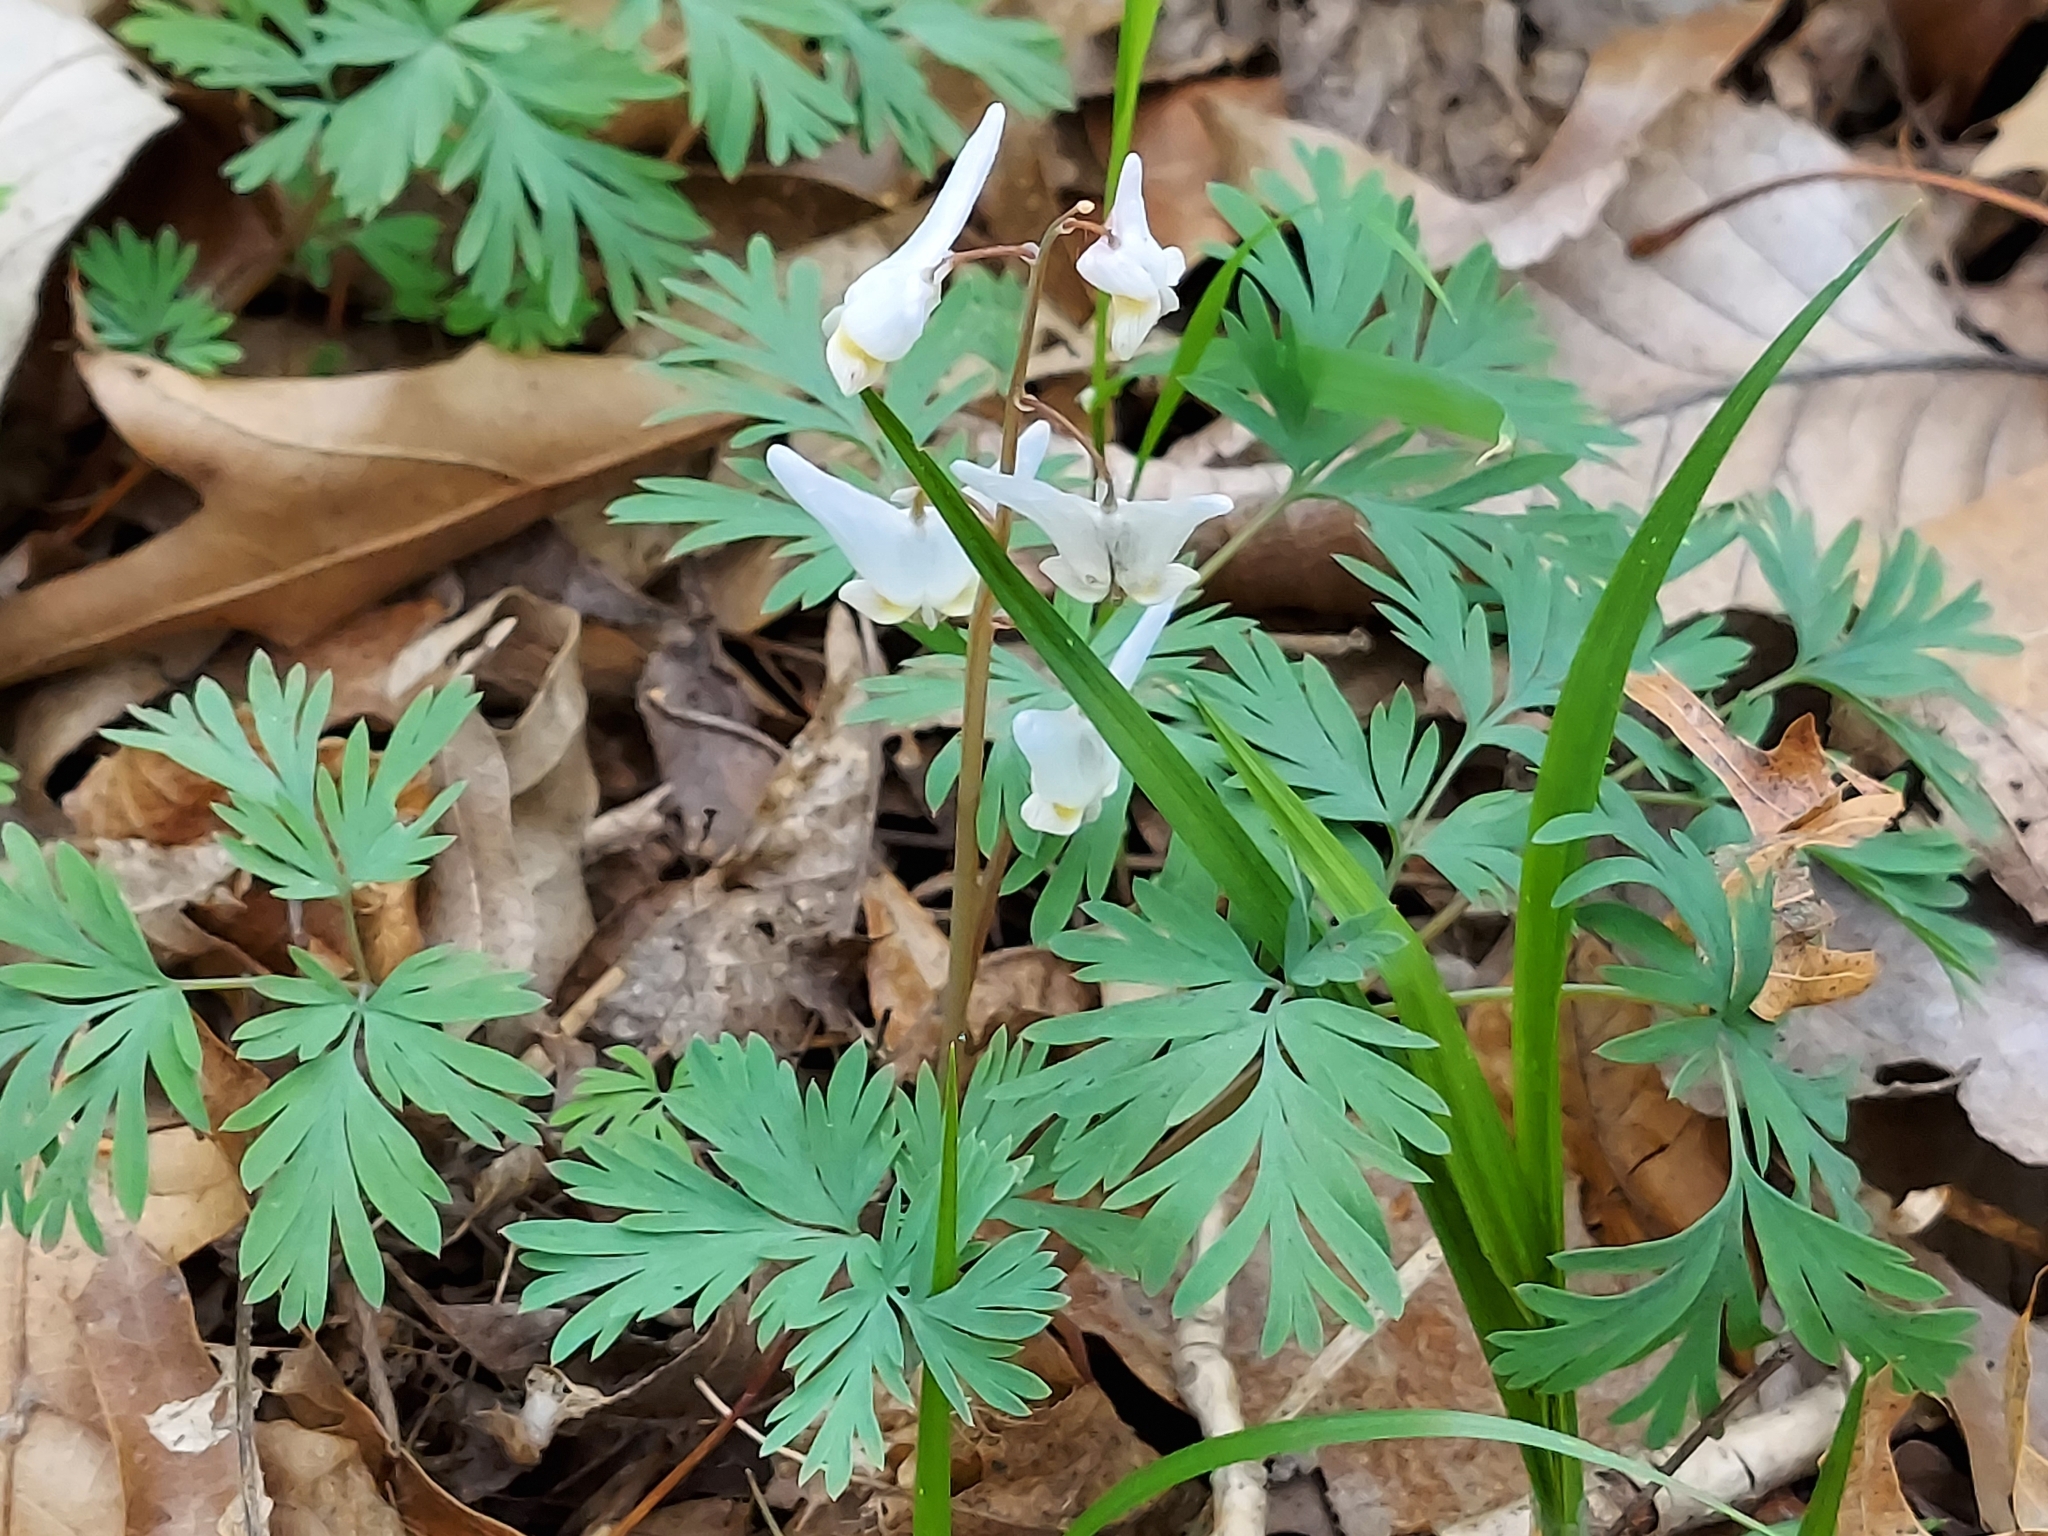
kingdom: Plantae
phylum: Tracheophyta
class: Magnoliopsida
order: Ranunculales
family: Papaveraceae
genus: Dicentra
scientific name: Dicentra cucullaria
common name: Dutchman's breeches
